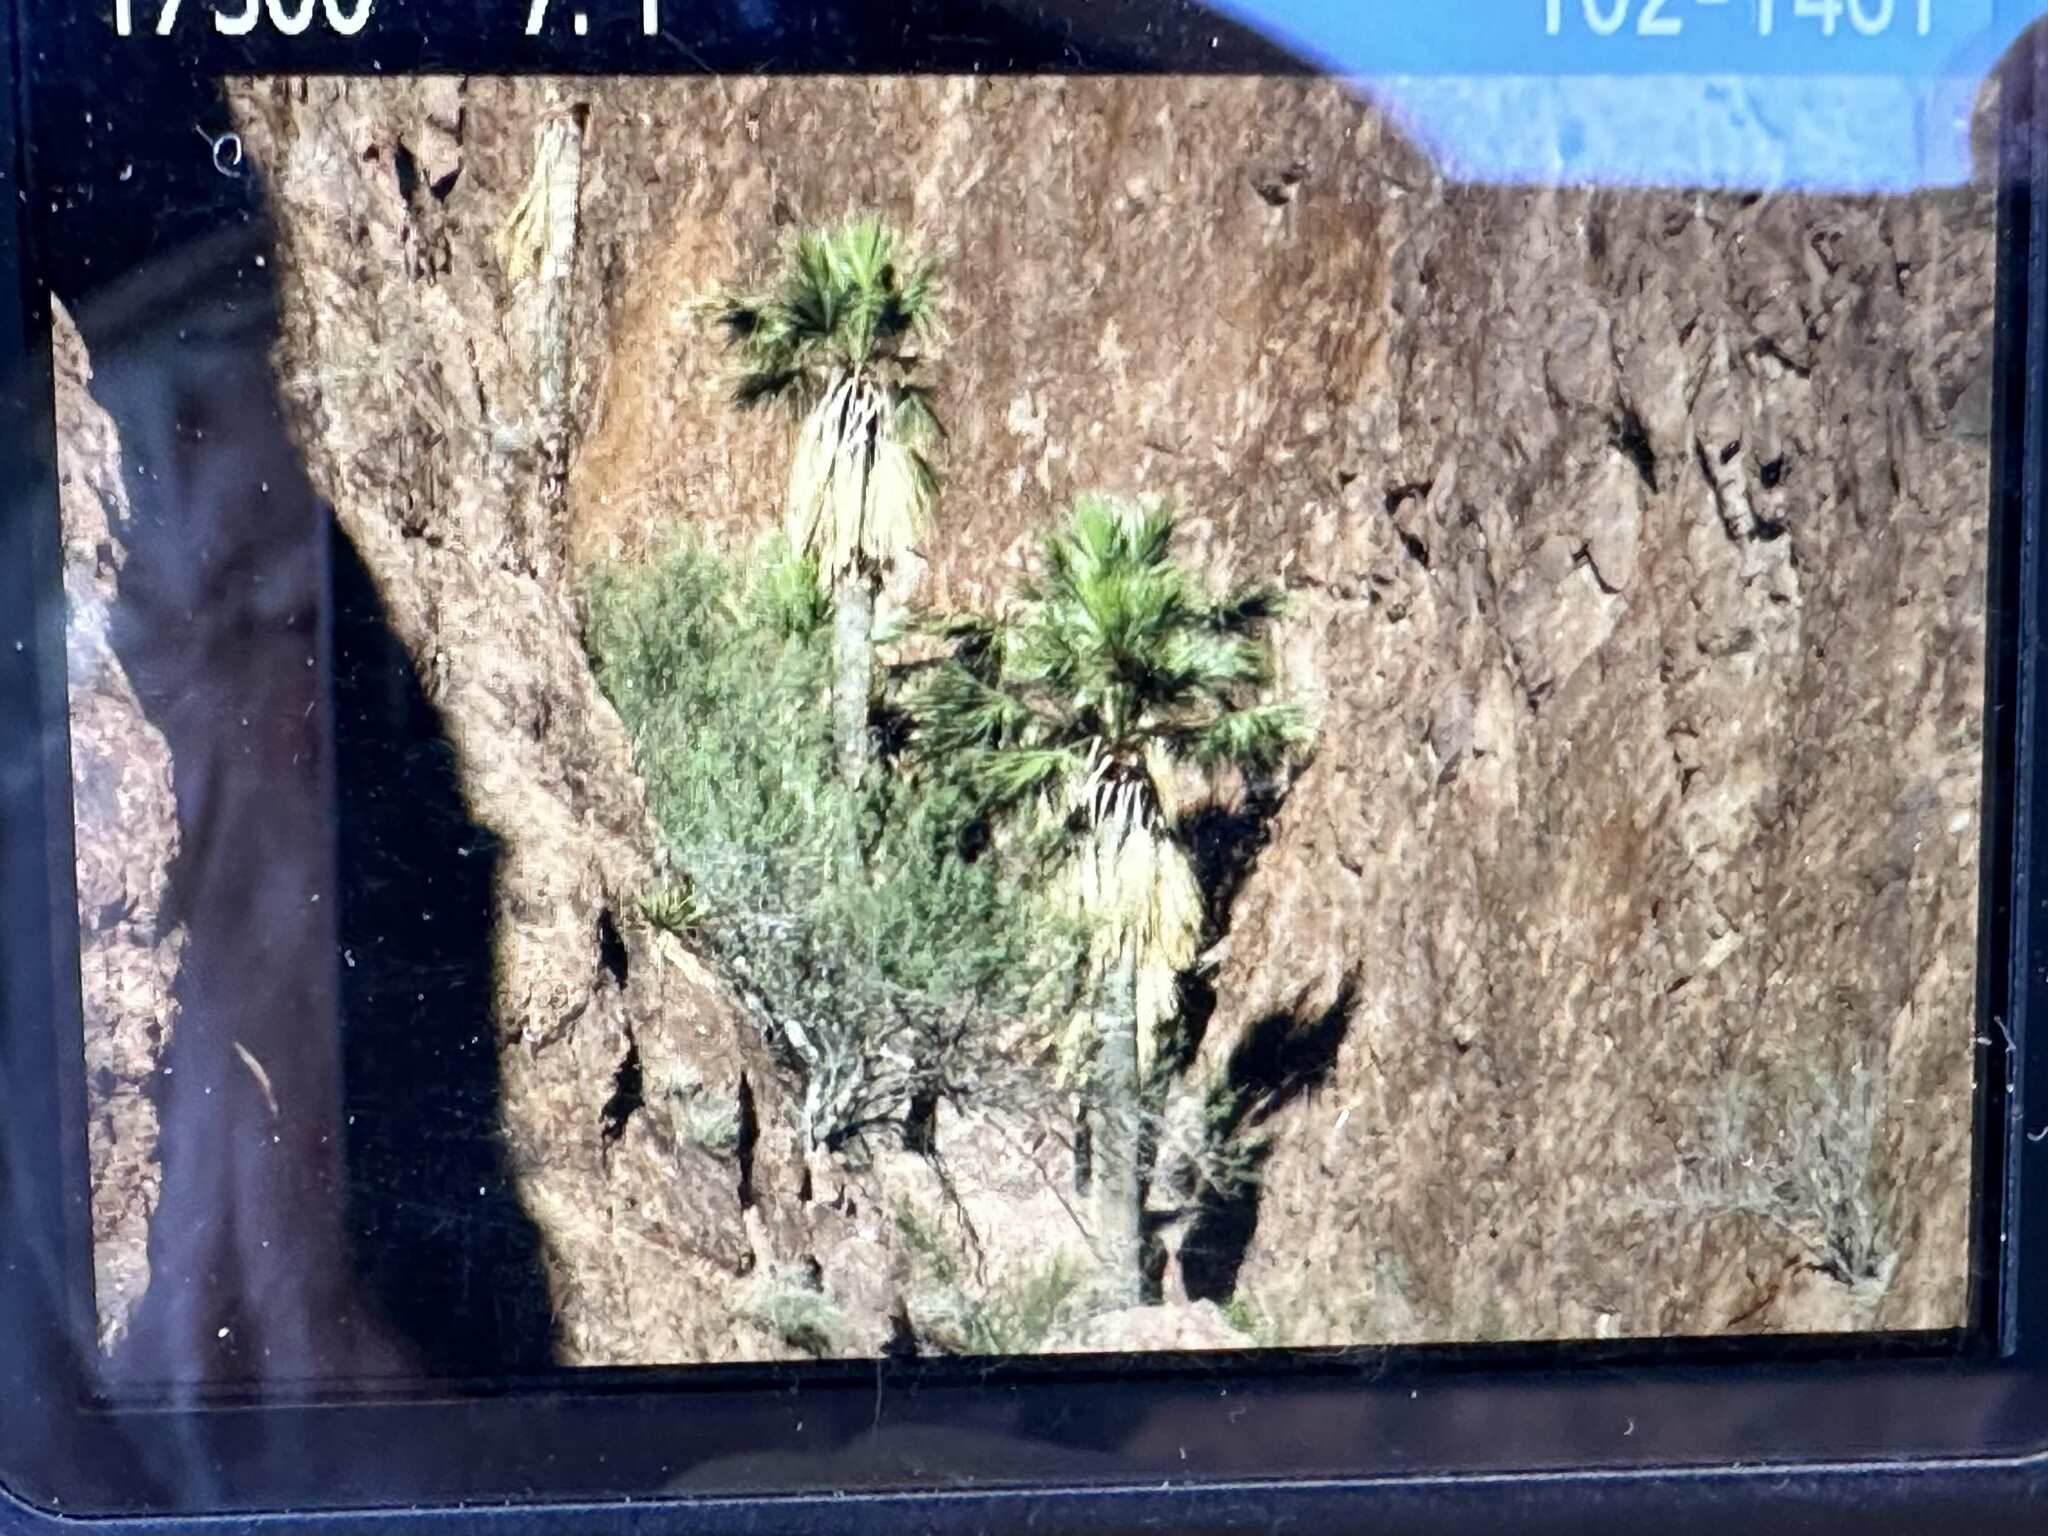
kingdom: Plantae
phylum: Tracheophyta
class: Liliopsida
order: Arecales
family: Arecaceae
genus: Washingtonia
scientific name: Washingtonia filifera
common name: California fan palm
